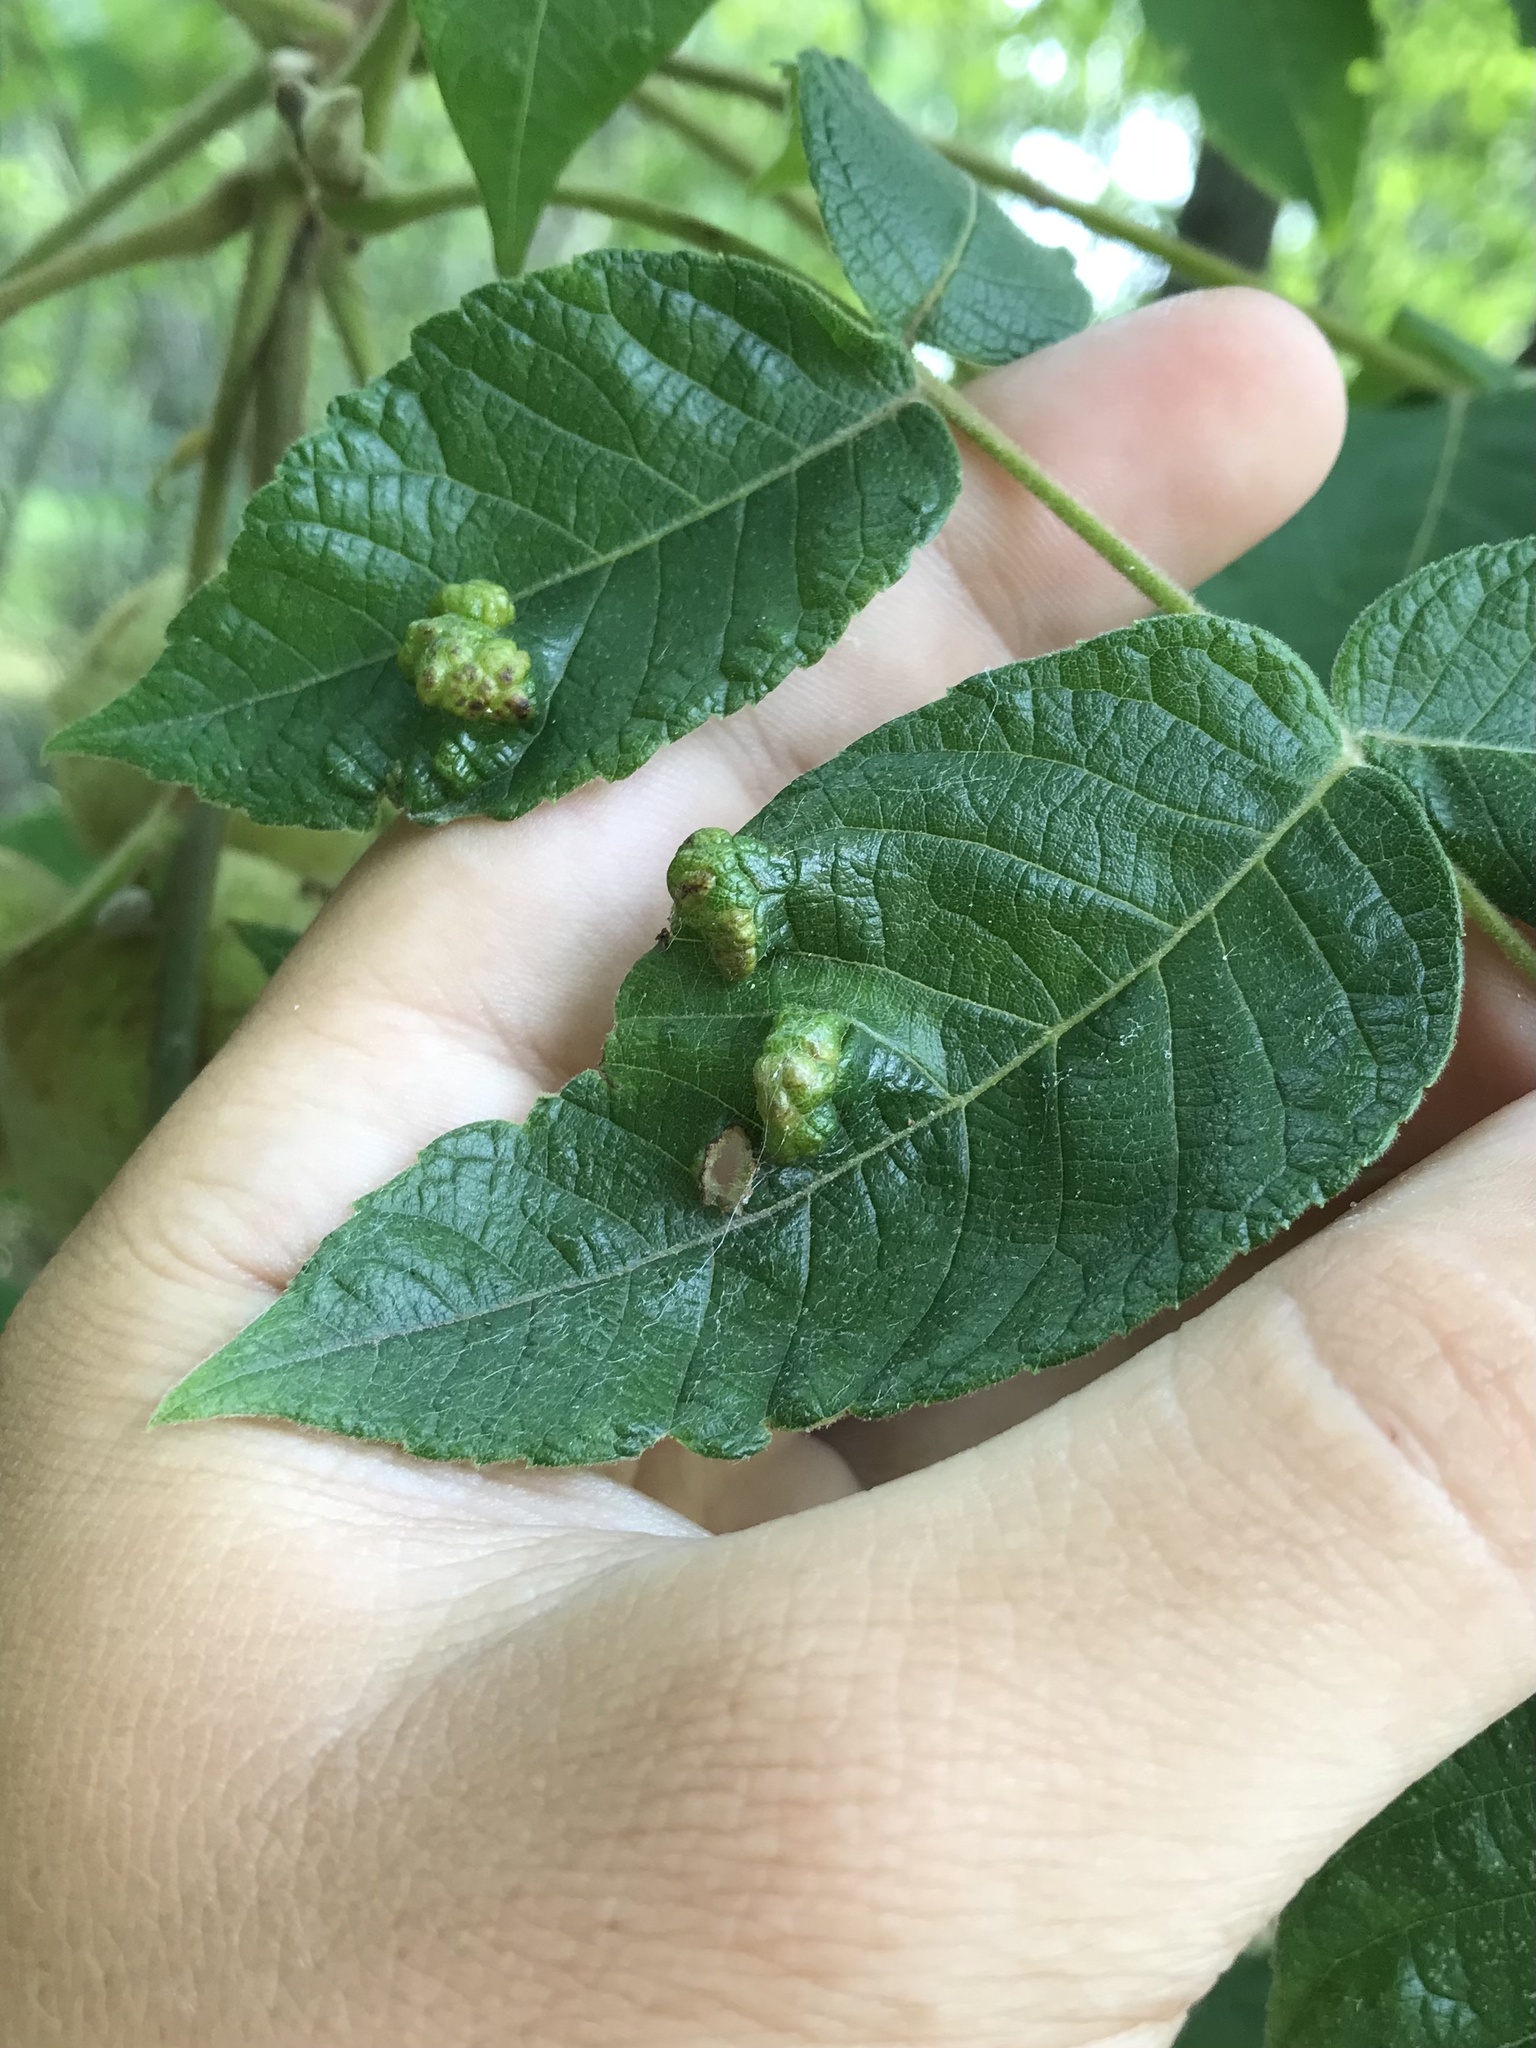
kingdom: Animalia
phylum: Arthropoda
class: Arachnida
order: Trombidiformes
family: Eriophyidae
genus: Aceria
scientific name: Aceria
